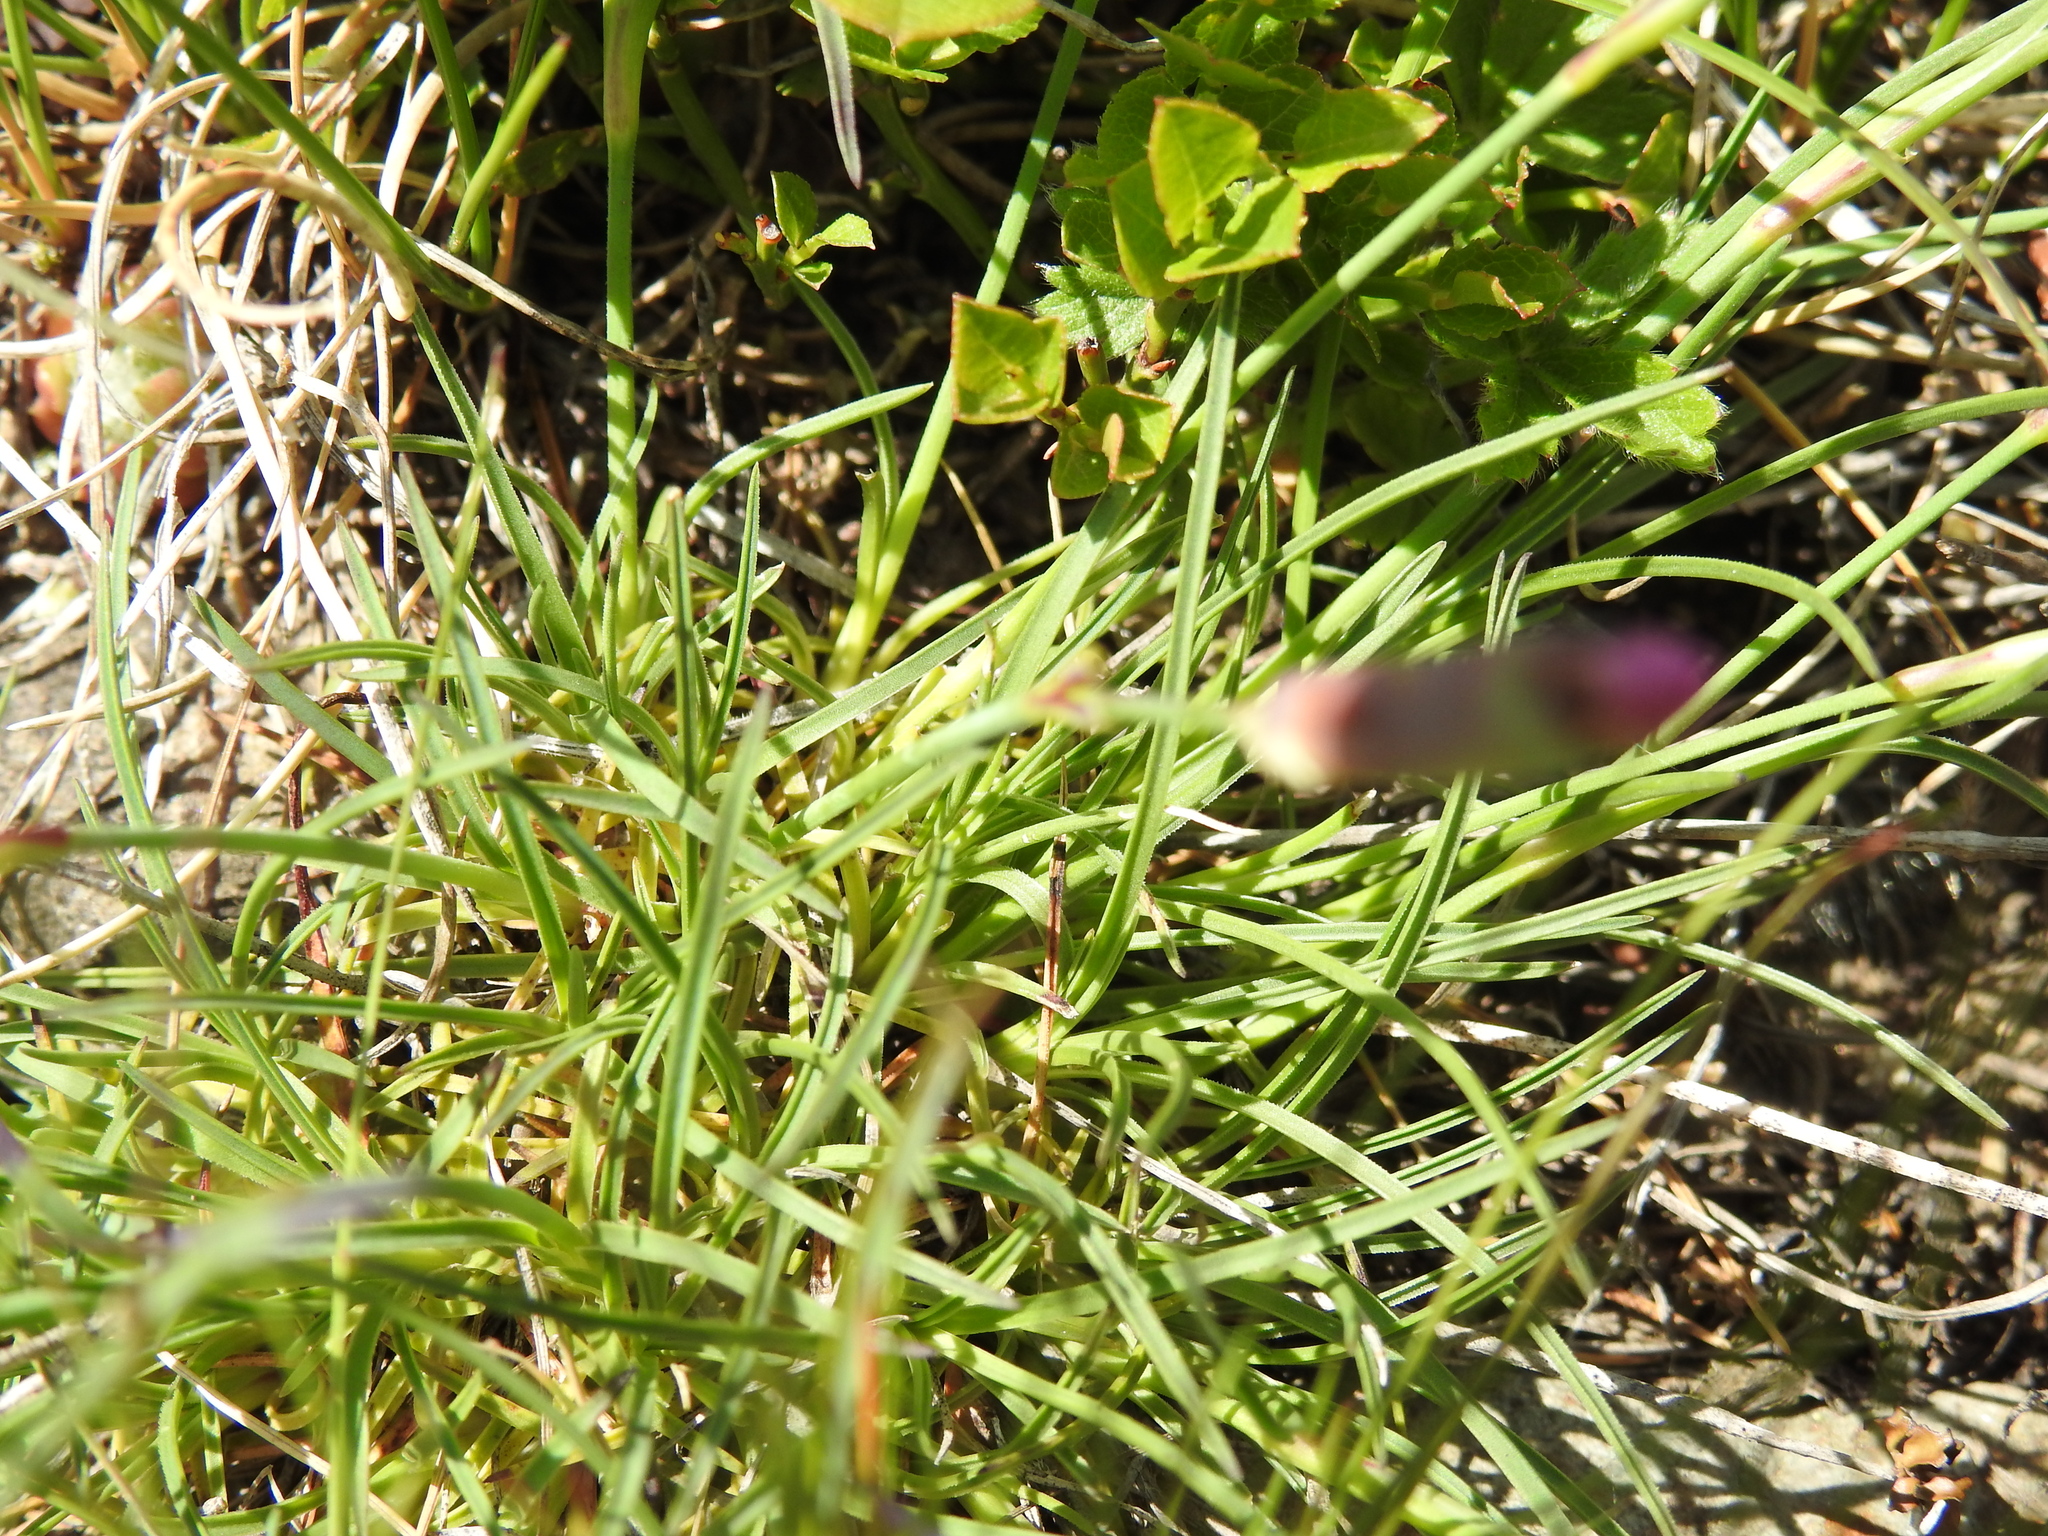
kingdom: Plantae
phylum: Tracheophyta
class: Magnoliopsida
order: Caryophyllales
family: Caryophyllaceae
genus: Dianthus
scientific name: Dianthus sylvestris
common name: Wood pink
